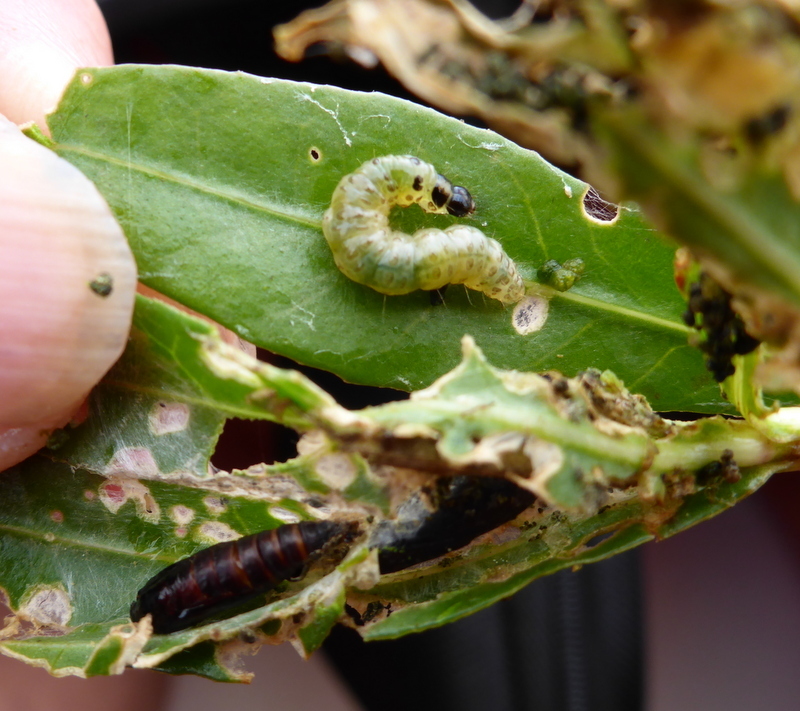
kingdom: Animalia
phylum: Arthropoda
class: Insecta
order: Lepidoptera
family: Crambidae
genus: Herpetogramma
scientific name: Herpetogramma bipunctalis
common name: Southern beet webworm
